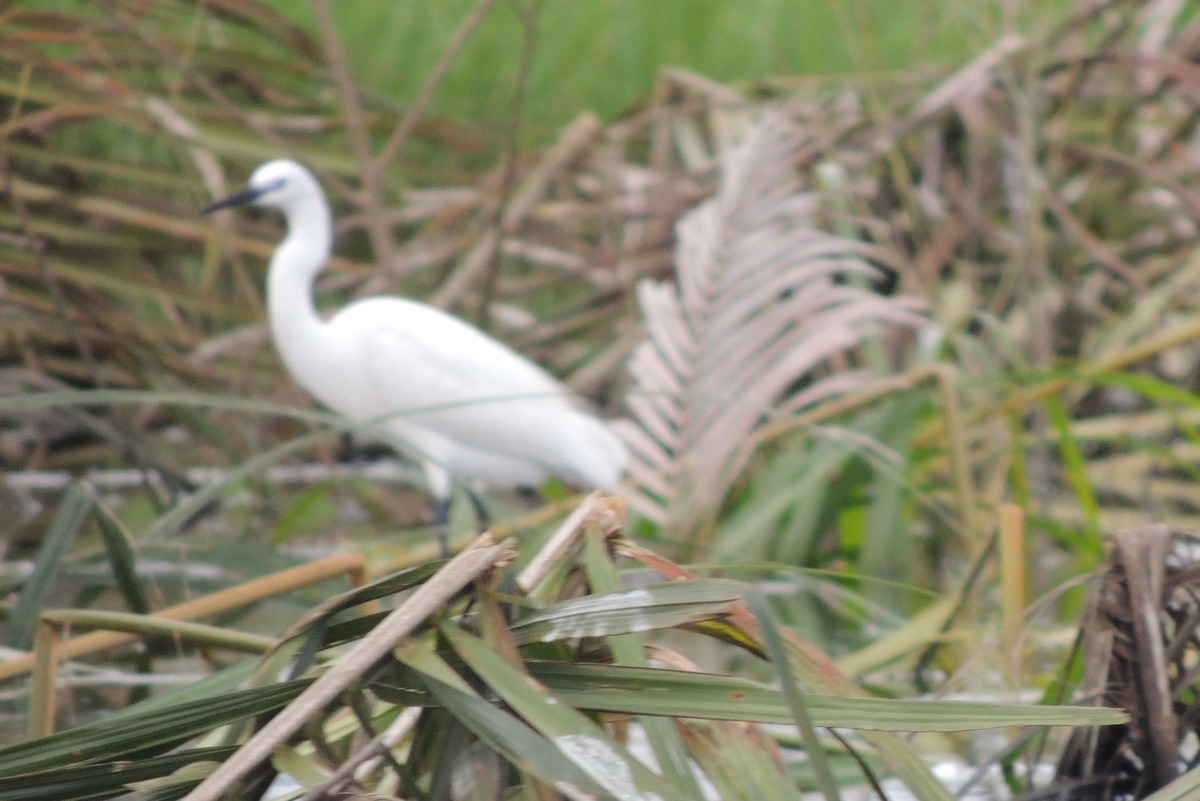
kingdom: Animalia
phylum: Chordata
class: Aves
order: Pelecaniformes
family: Ardeidae
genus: Egretta
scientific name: Egretta garzetta
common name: Little egret
